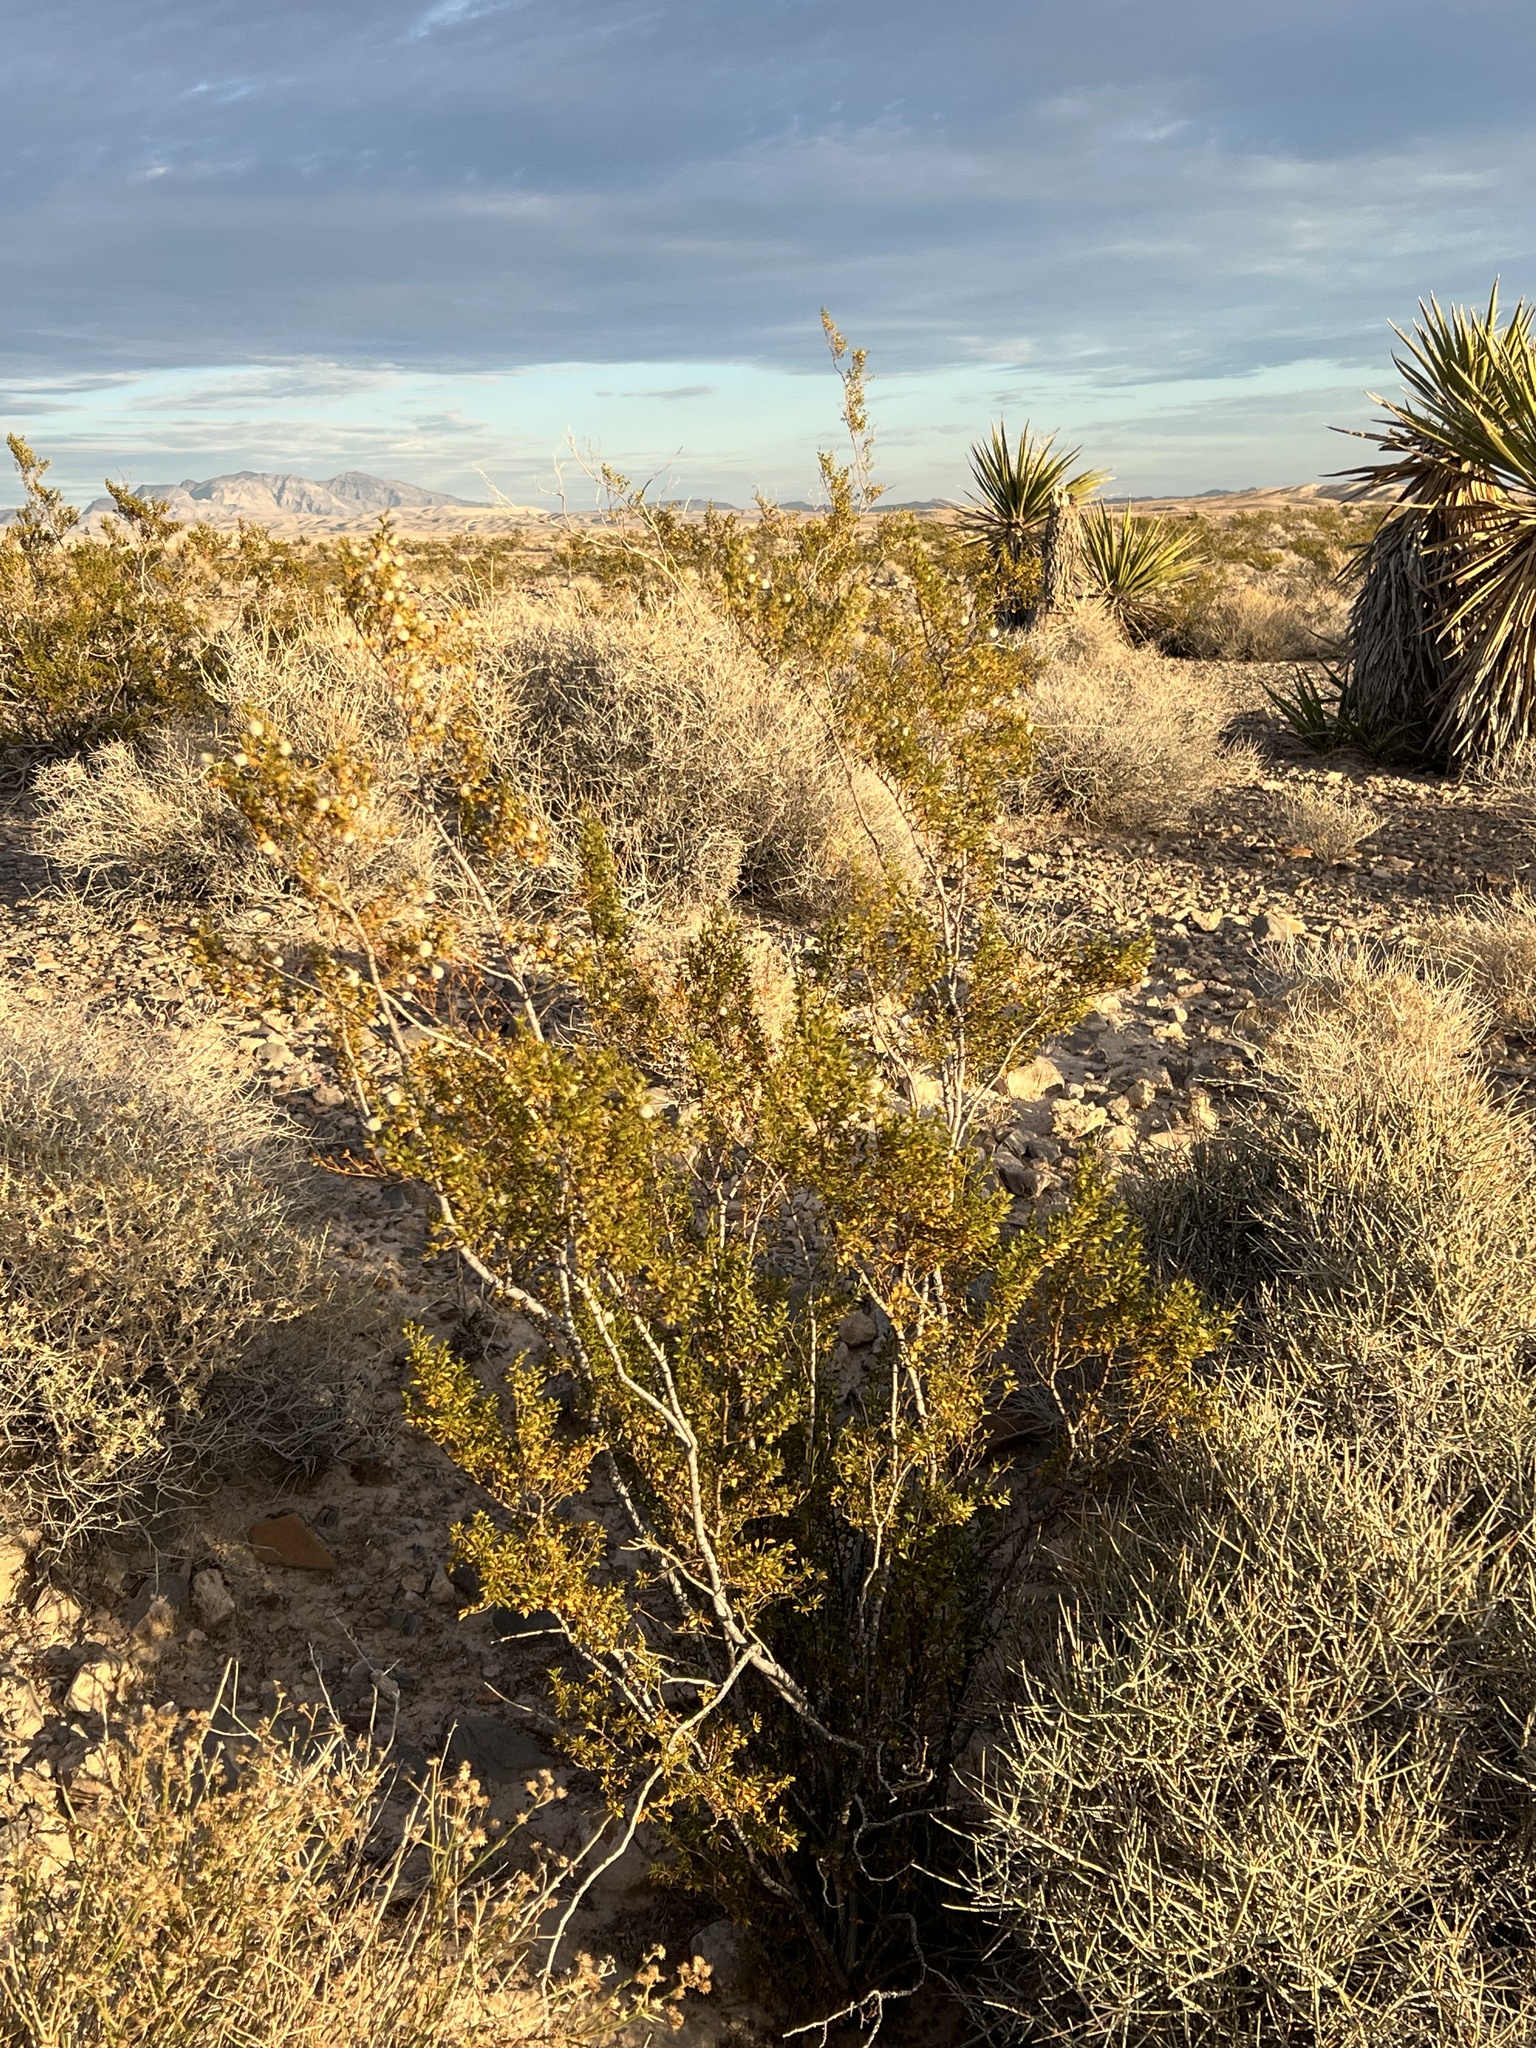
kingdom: Plantae
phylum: Tracheophyta
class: Magnoliopsida
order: Zygophyllales
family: Zygophyllaceae
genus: Larrea
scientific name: Larrea tridentata
